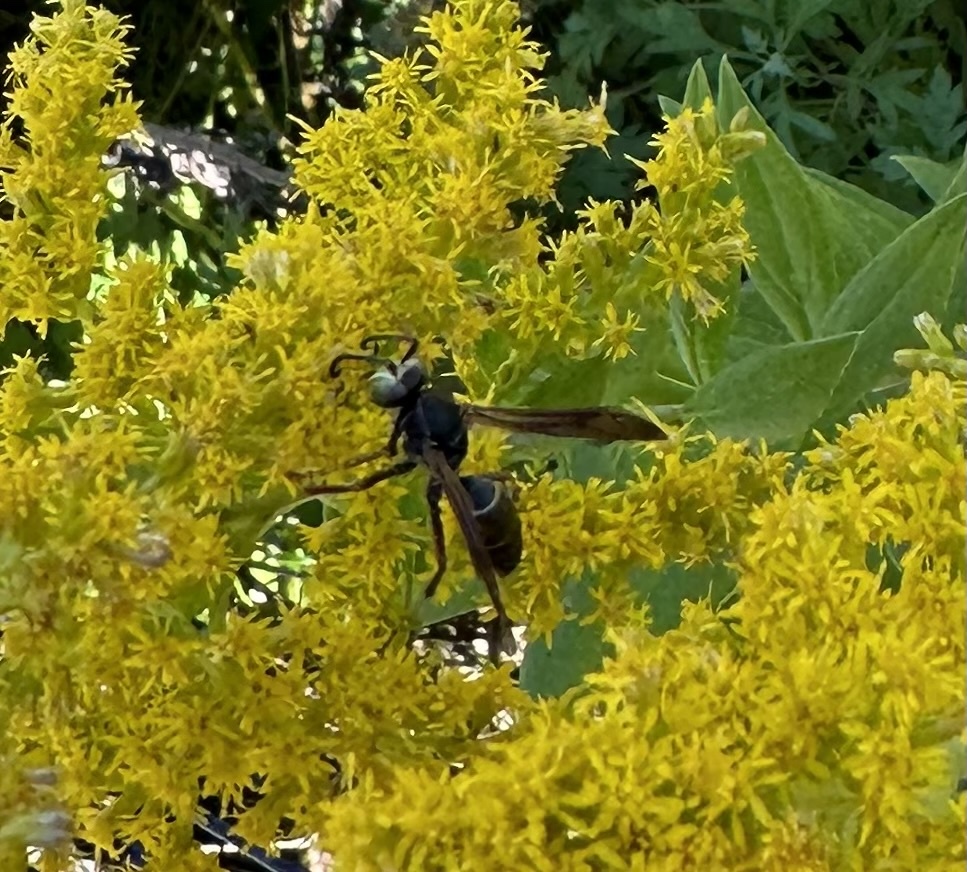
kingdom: Animalia
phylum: Arthropoda
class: Insecta
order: Hymenoptera
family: Eumenidae
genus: Polistes
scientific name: Polistes fuscatus
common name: Dark paper wasp
